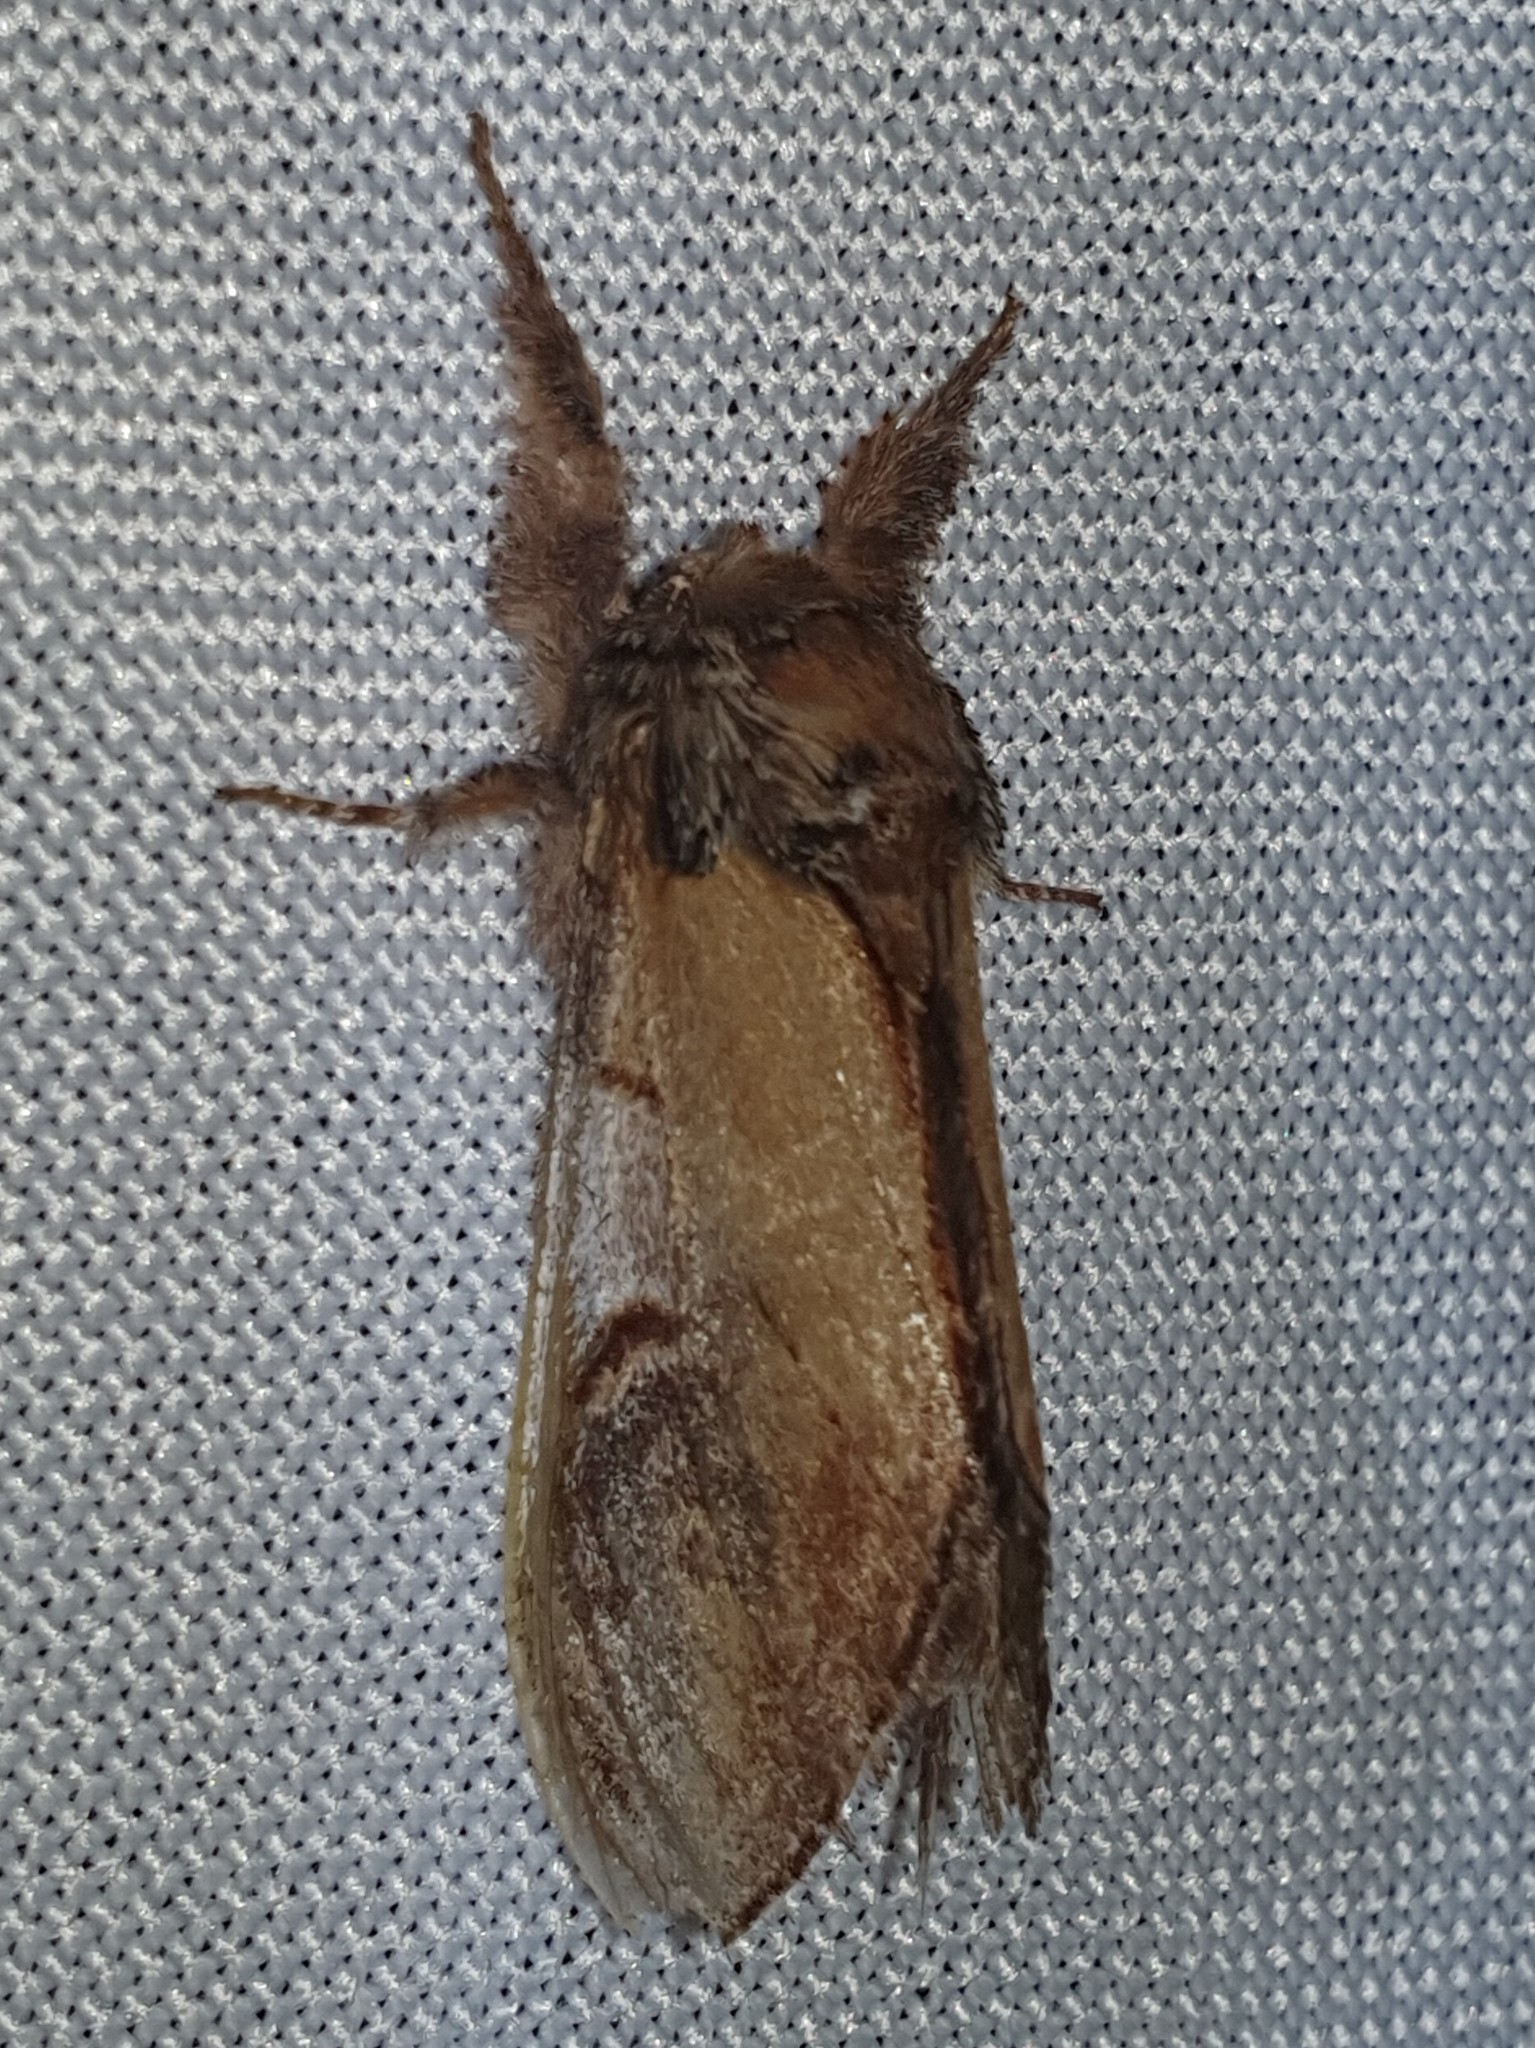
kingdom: Animalia
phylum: Arthropoda
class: Insecta
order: Lepidoptera
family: Notodontidae
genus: Notodonta
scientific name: Notodonta ziczac
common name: Pebble prominent
